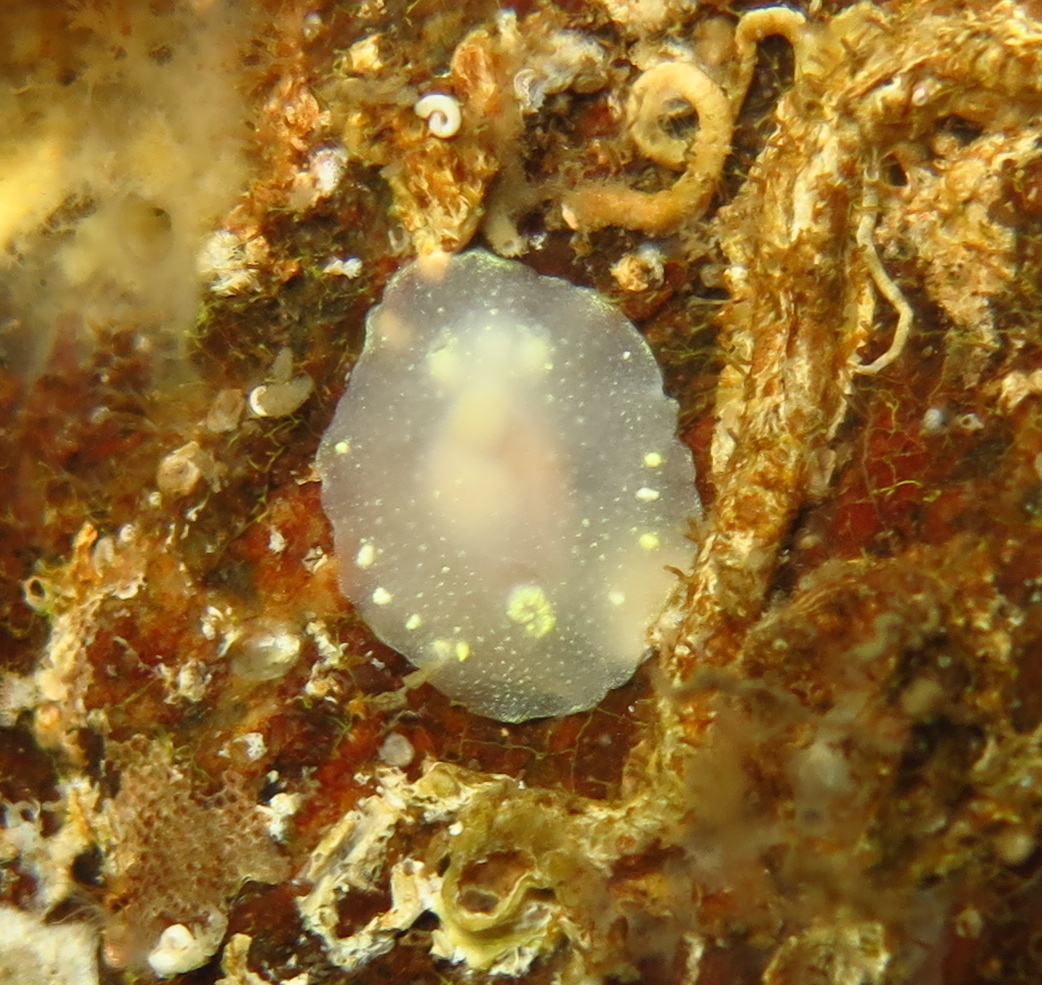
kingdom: Animalia
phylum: Mollusca
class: Gastropoda
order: Nudibranchia
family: Cadlinidae
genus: Cadlina
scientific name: Cadlina laevis
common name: White atlantic cadlina
